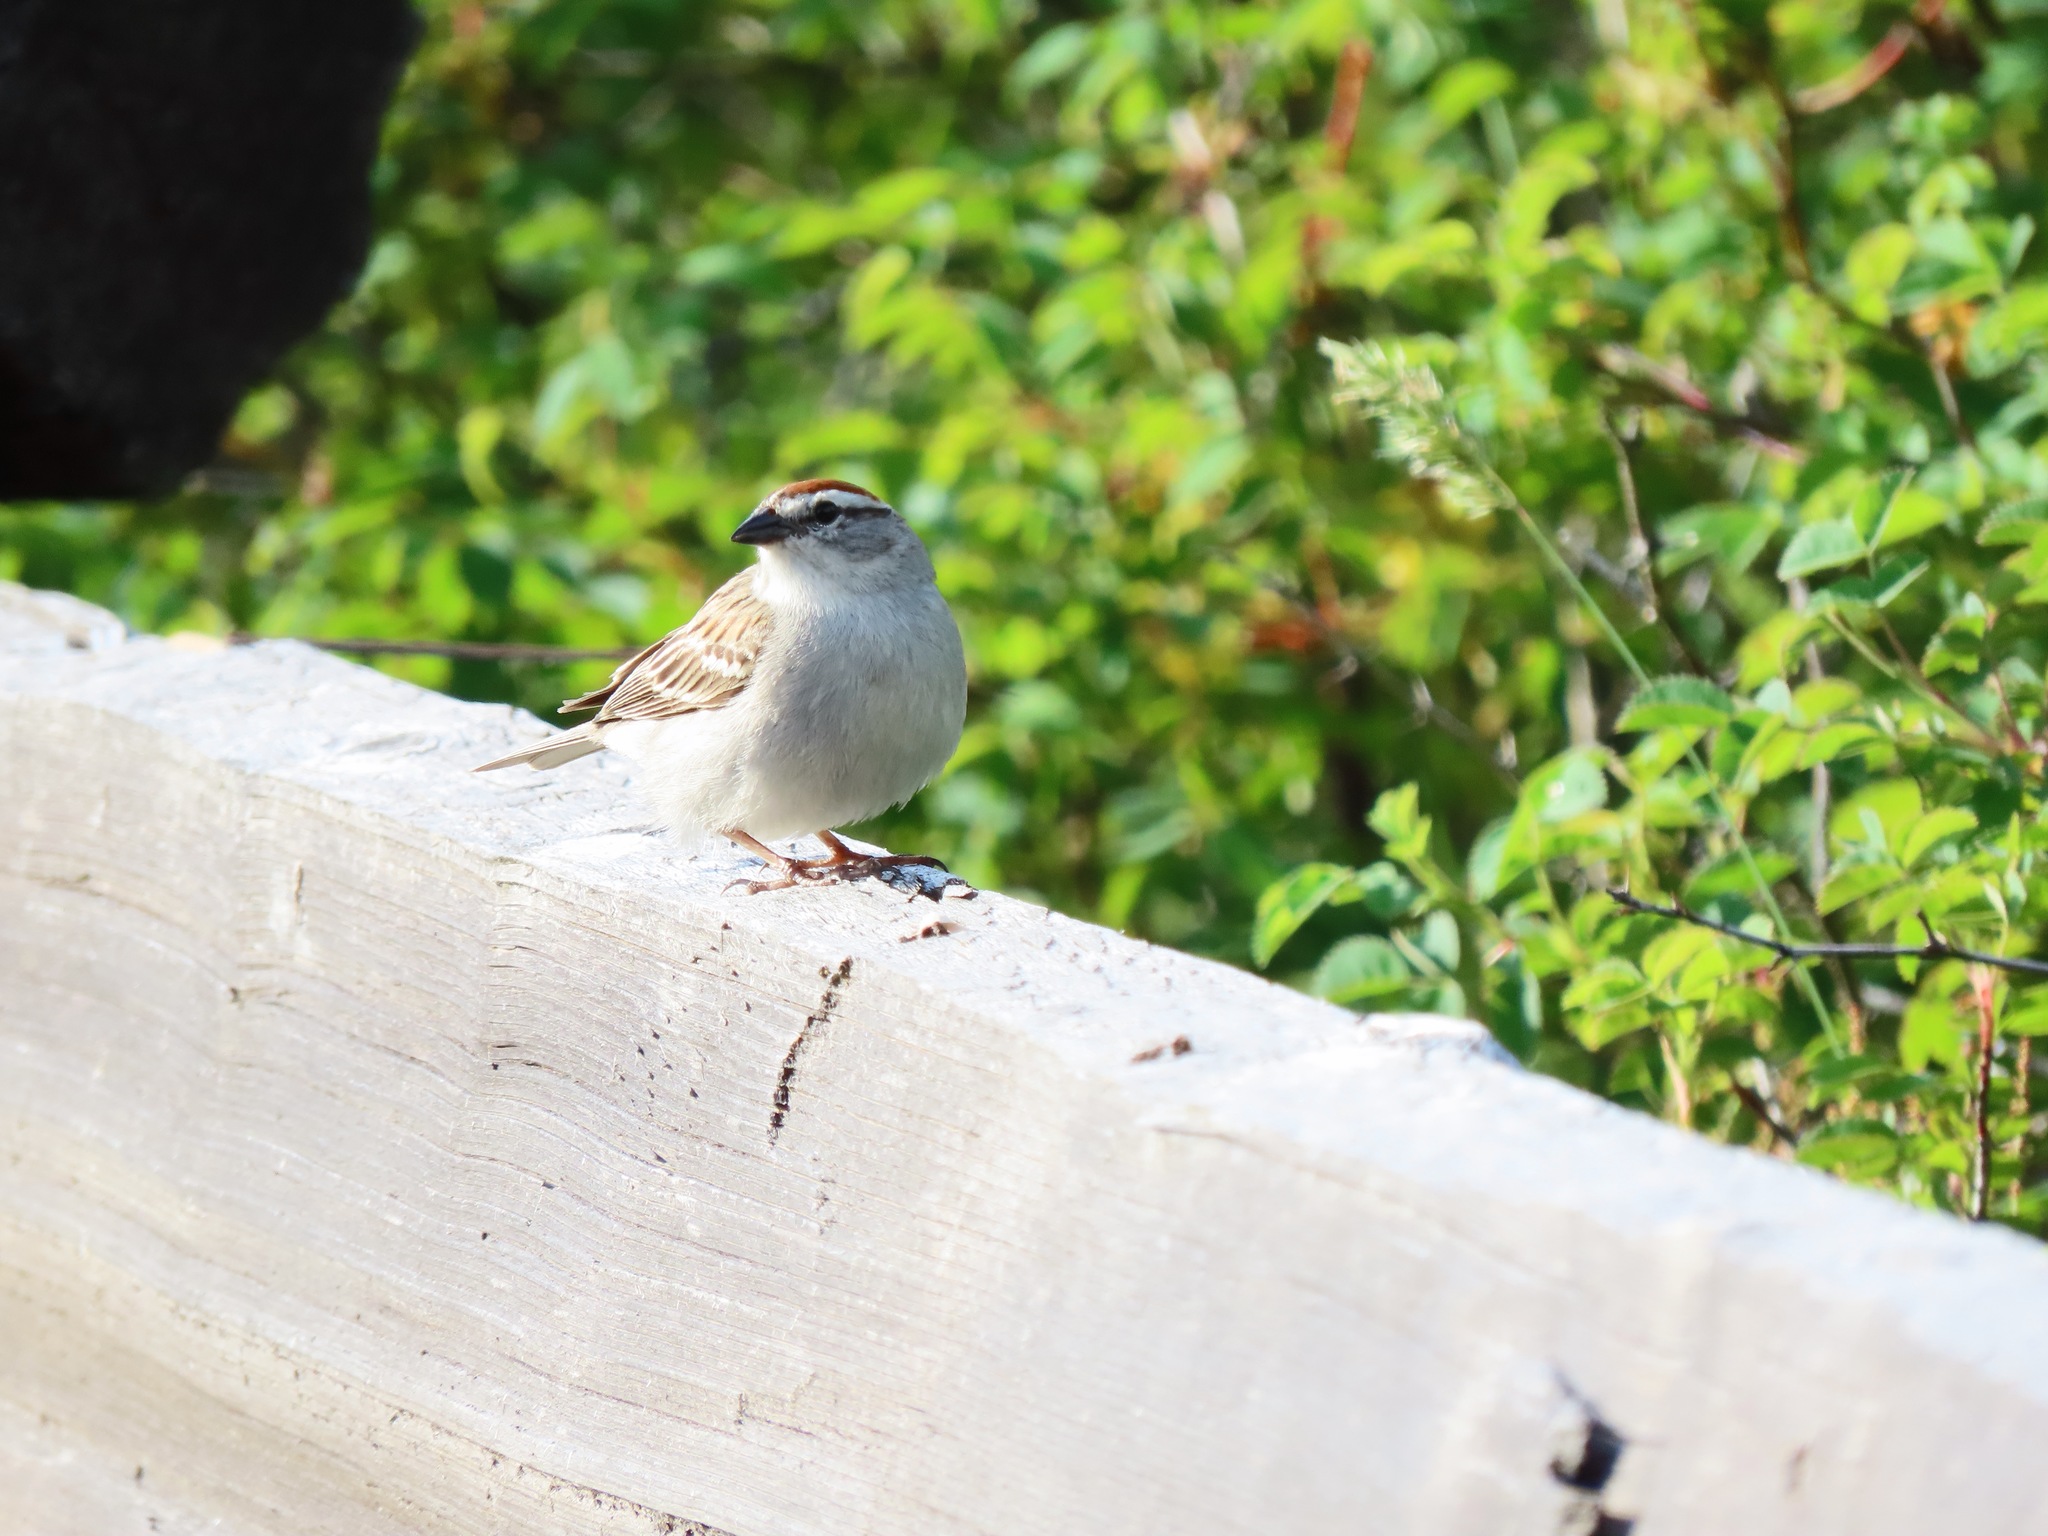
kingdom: Animalia
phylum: Chordata
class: Aves
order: Passeriformes
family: Passerellidae
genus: Spizella
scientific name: Spizella passerina
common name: Chipping sparrow
